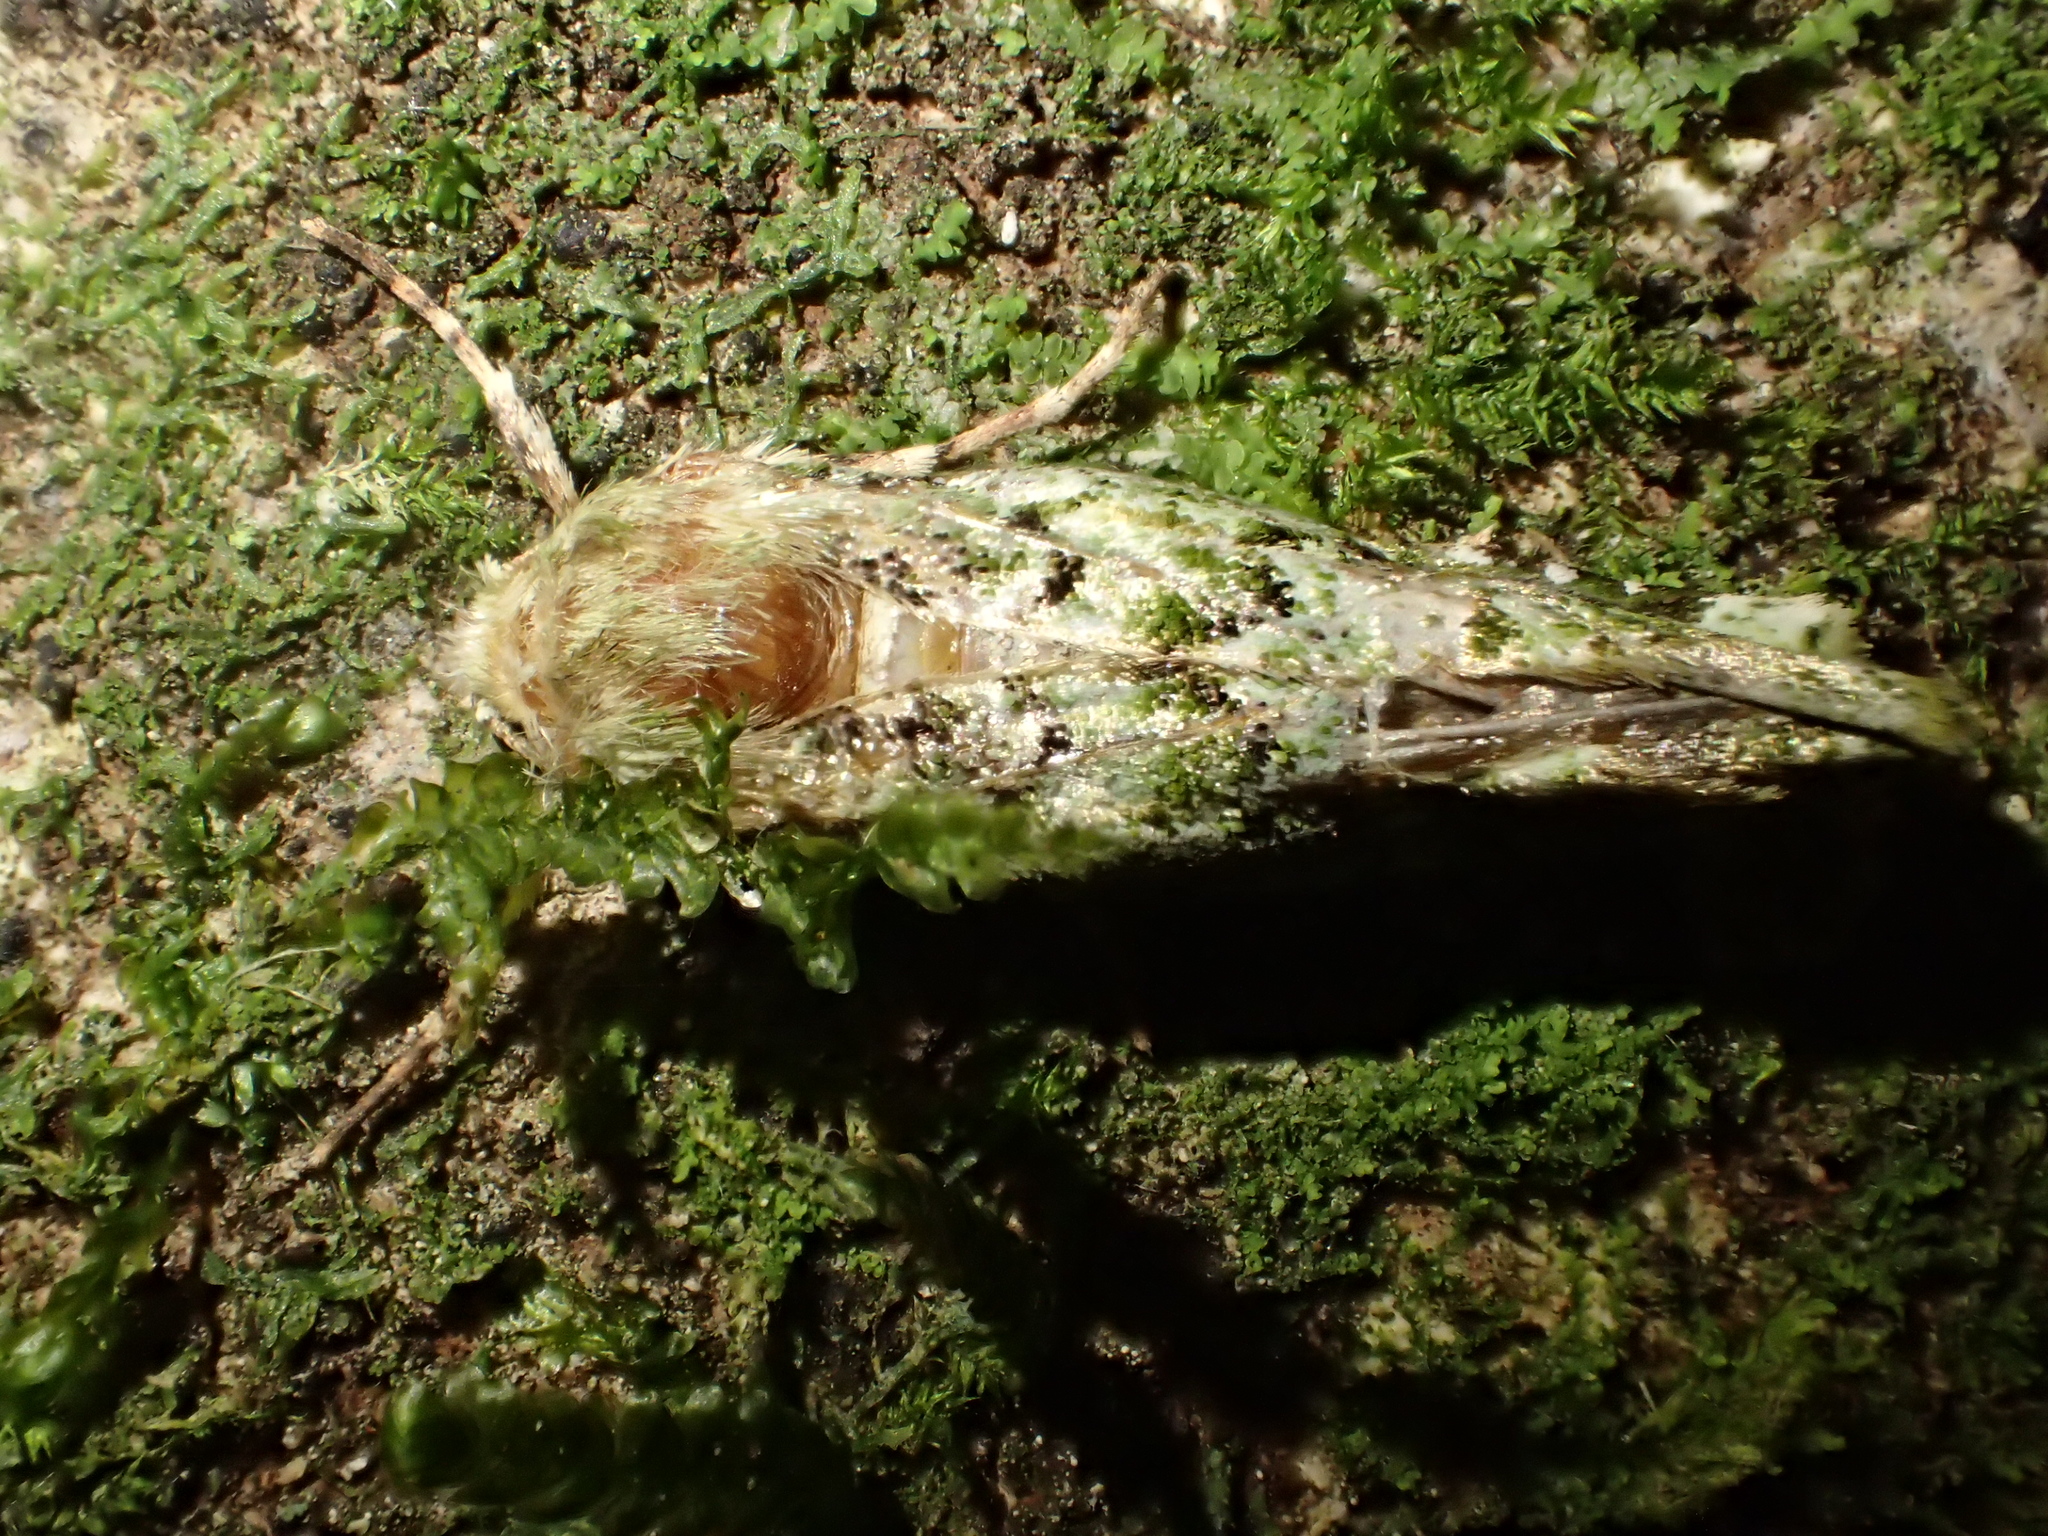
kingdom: Animalia
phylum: Arthropoda
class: Insecta
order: Lepidoptera
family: Noctuidae
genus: Feredayia
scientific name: Feredayia grammosa
